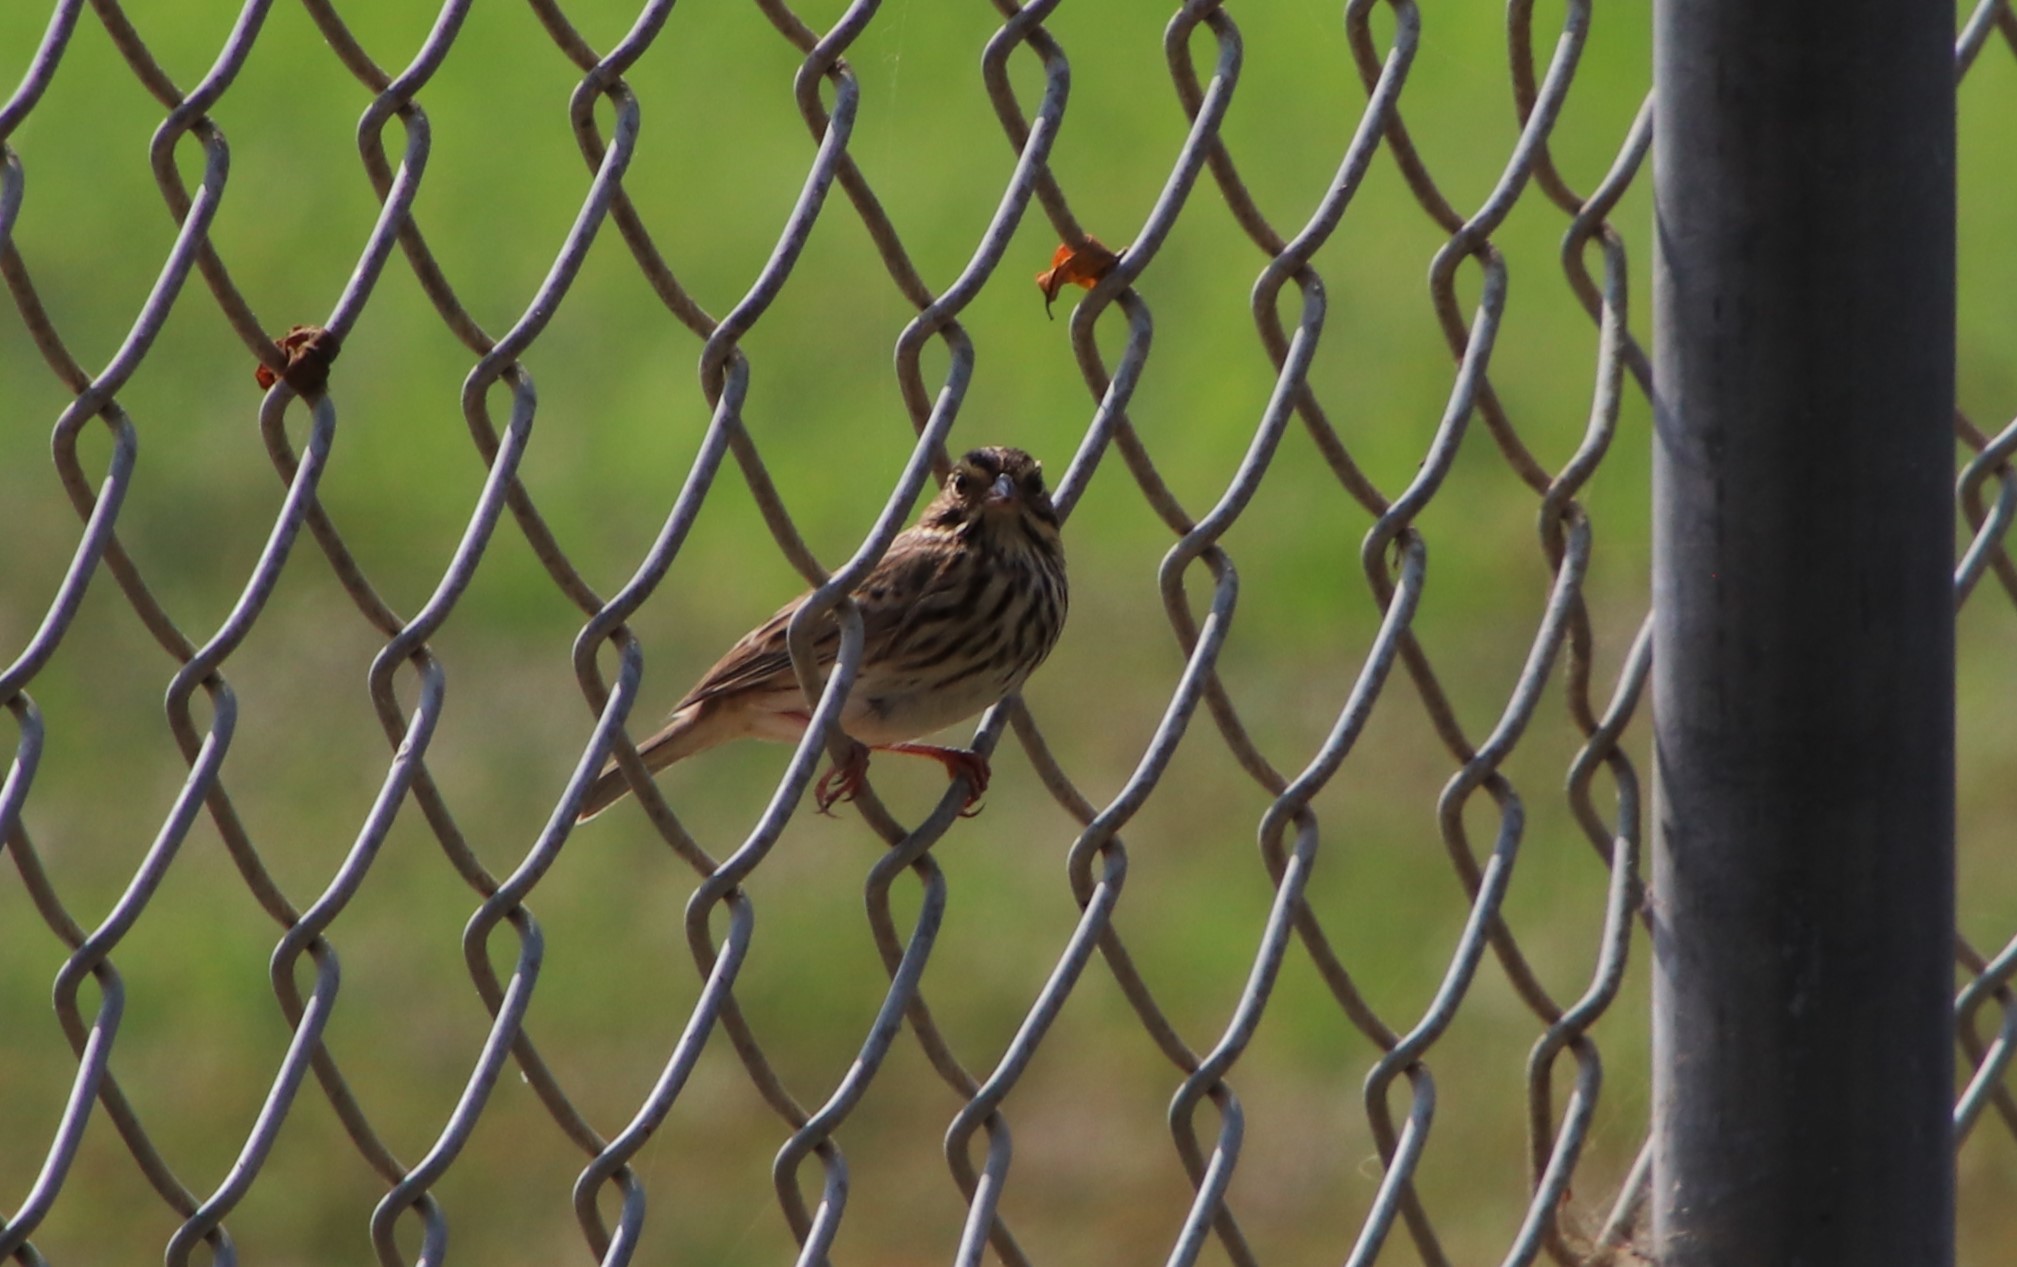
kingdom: Animalia
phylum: Chordata
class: Aves
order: Passeriformes
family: Passerellidae
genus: Passerculus
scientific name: Passerculus sandwichensis
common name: Savannah sparrow
